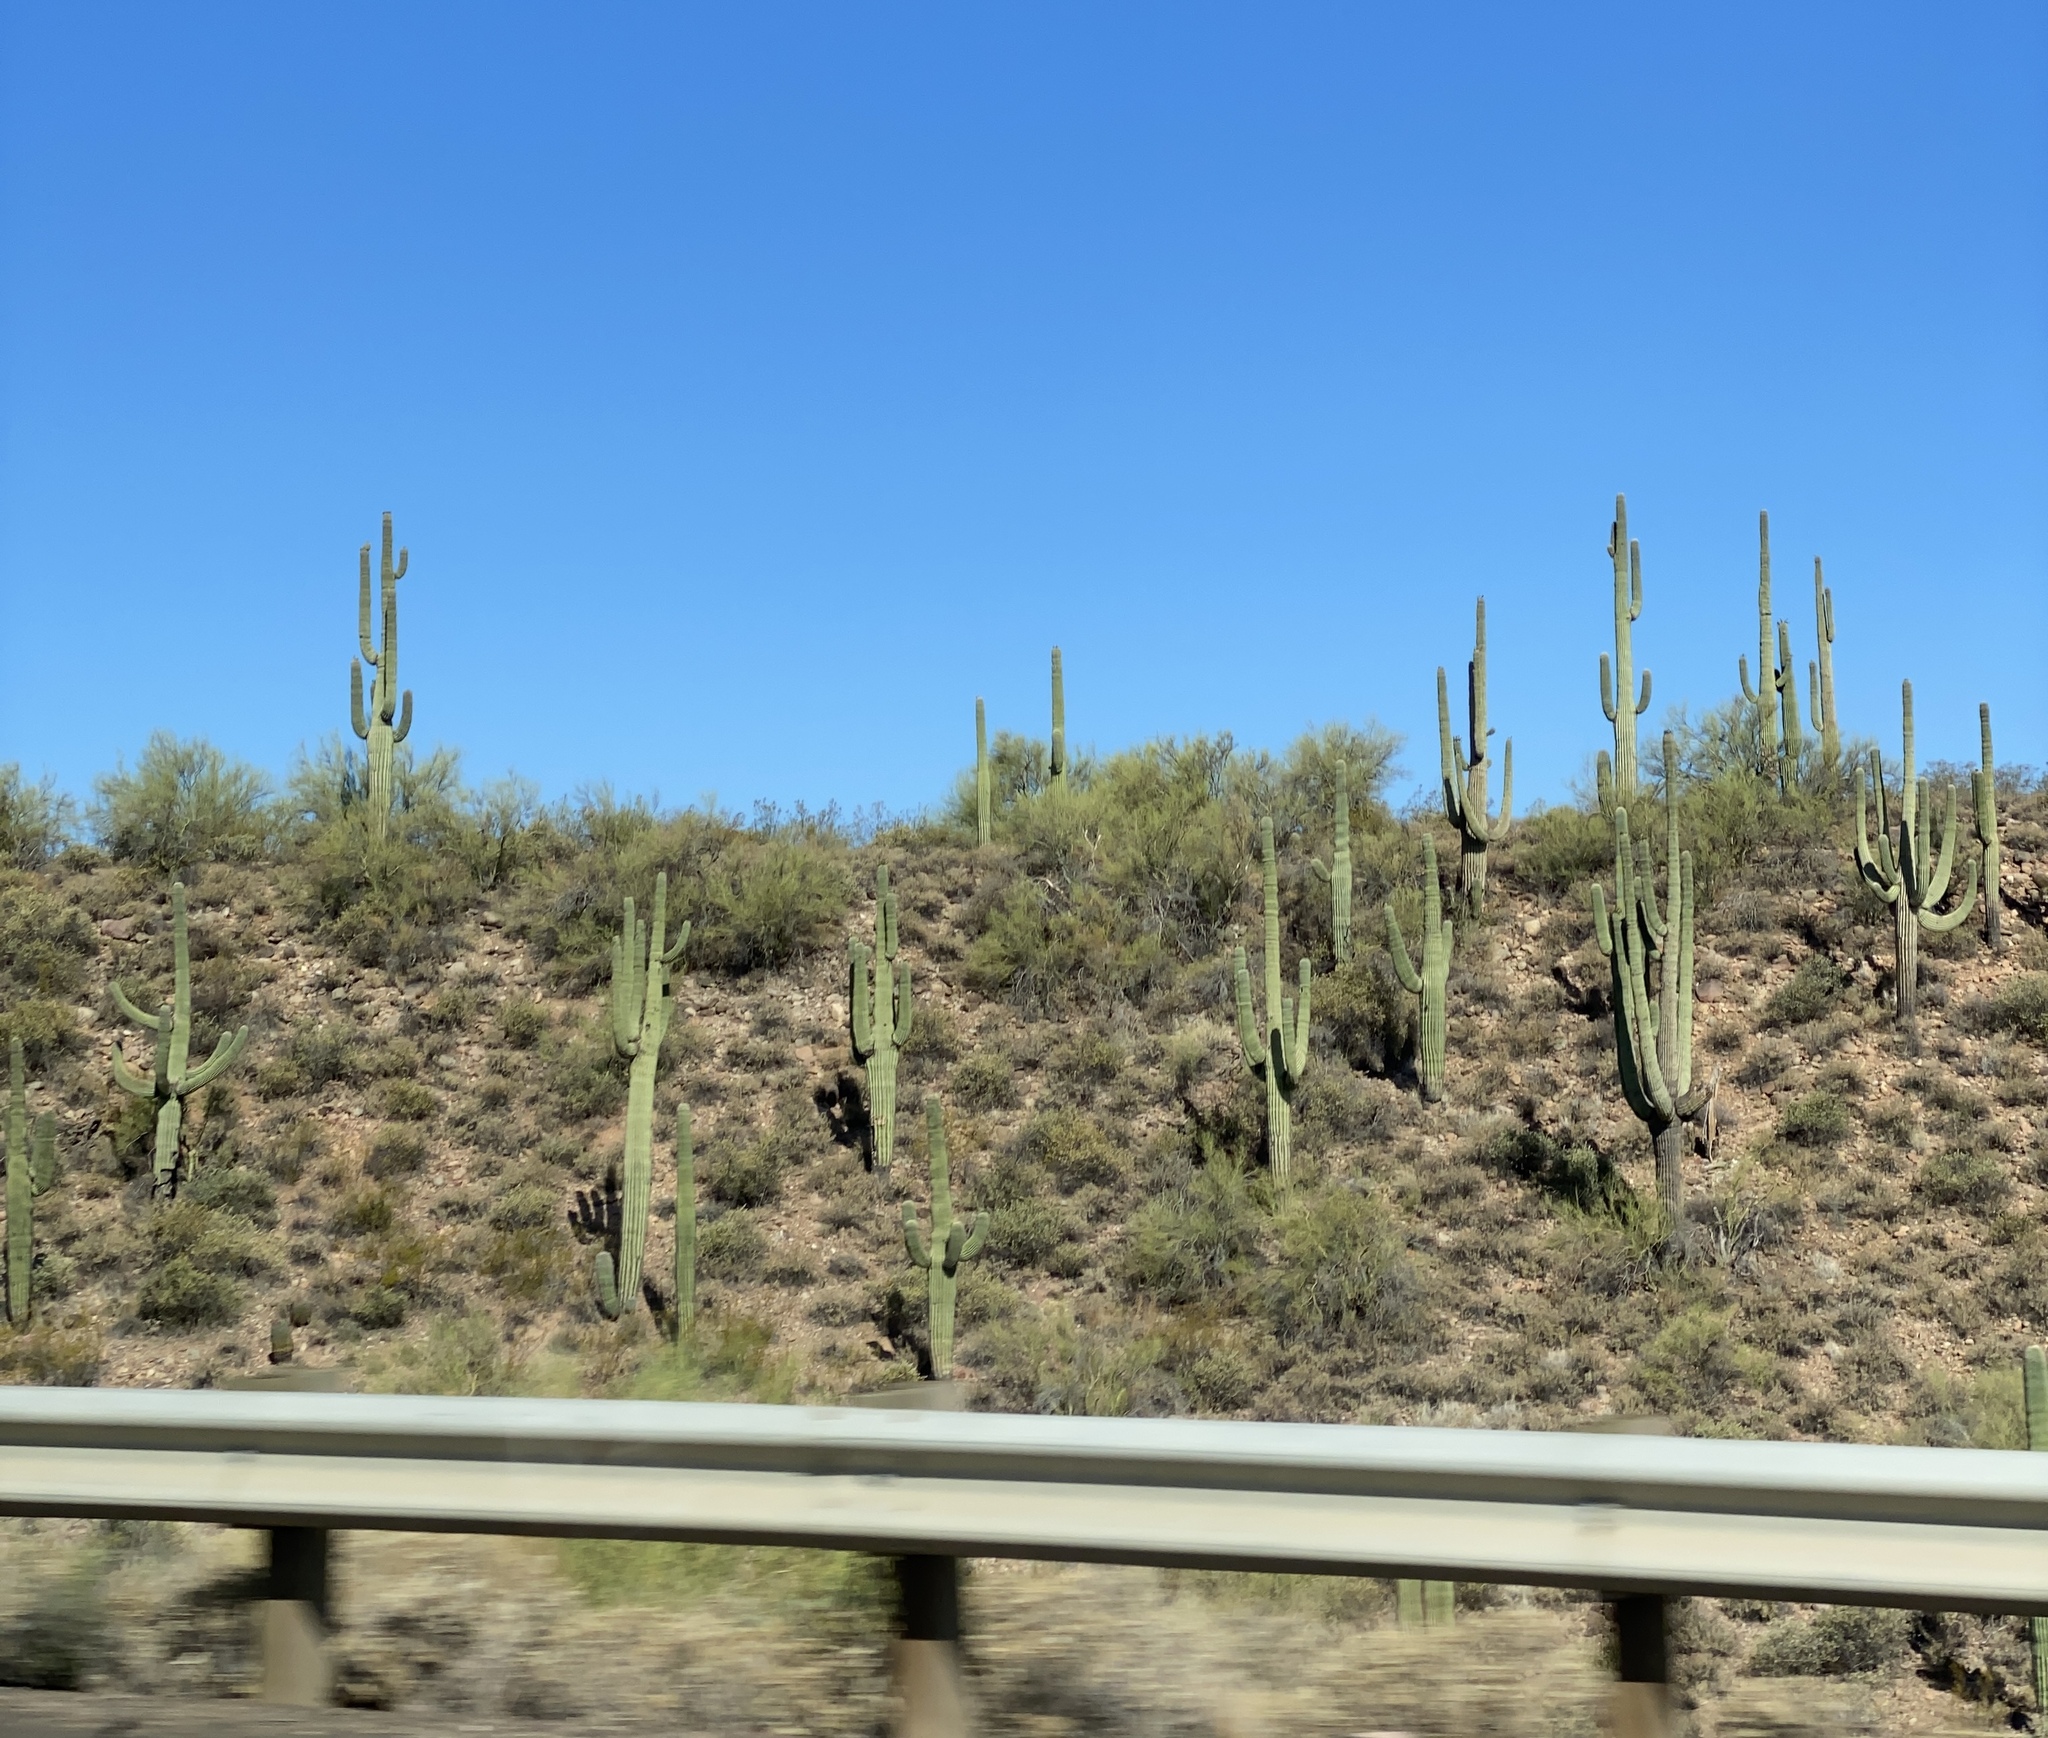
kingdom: Plantae
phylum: Tracheophyta
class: Magnoliopsida
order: Caryophyllales
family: Cactaceae
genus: Carnegiea
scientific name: Carnegiea gigantea
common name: Saguaro
